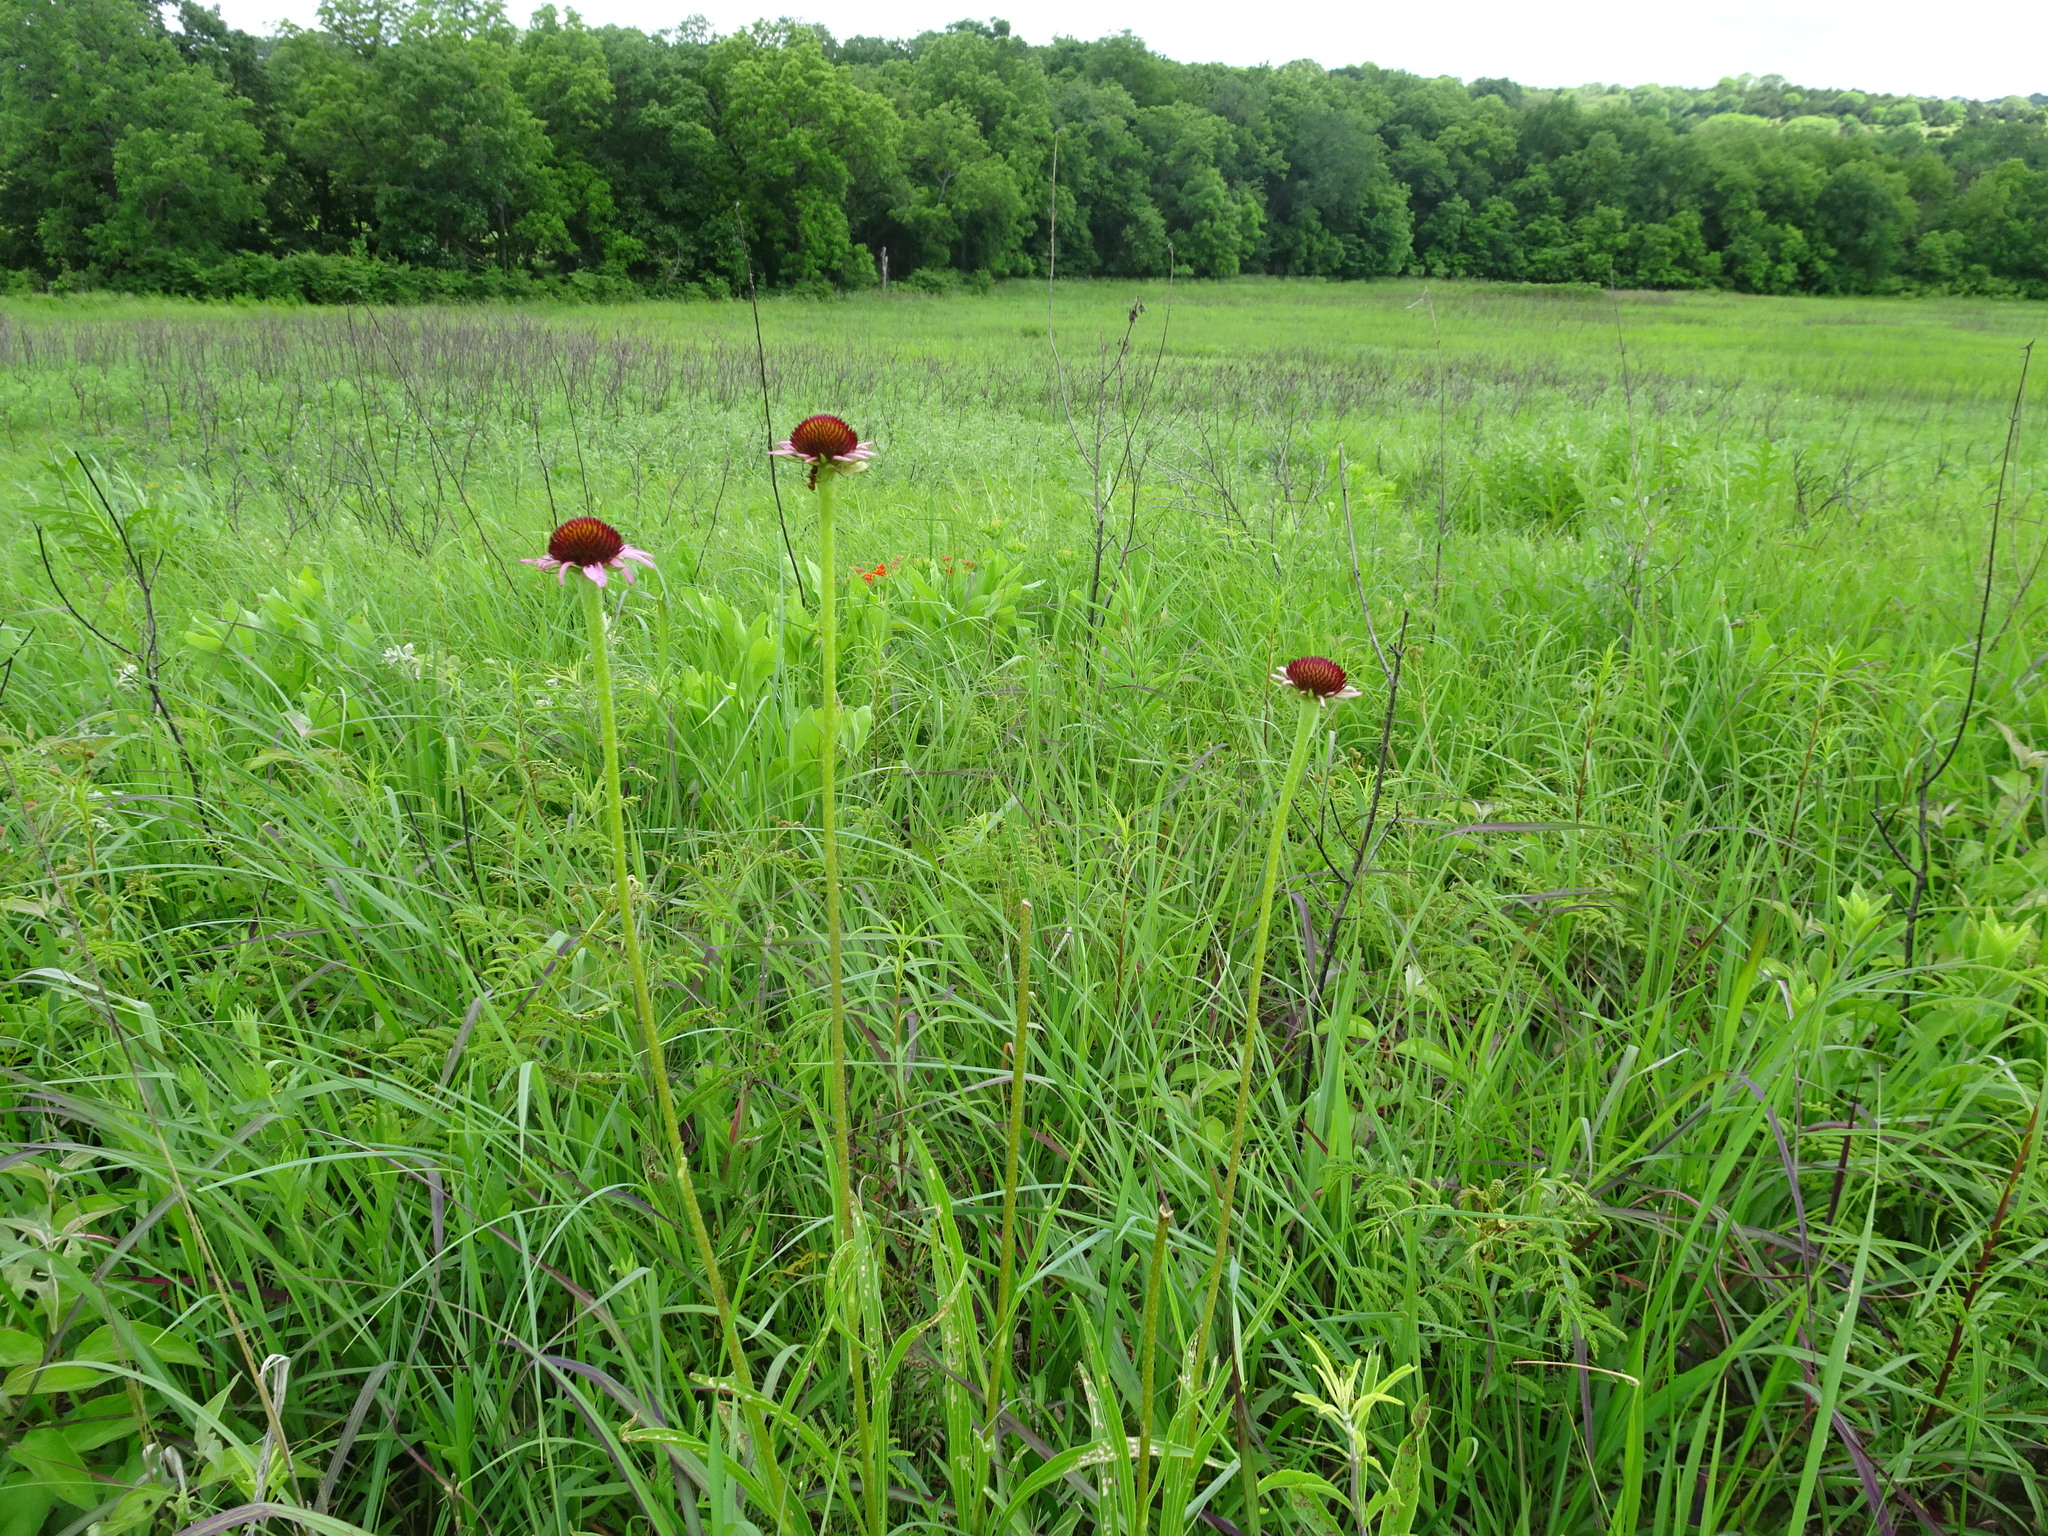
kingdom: Plantae
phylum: Tracheophyta
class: Magnoliopsida
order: Asterales
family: Asteraceae
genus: Echinacea
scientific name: Echinacea atrorubens
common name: Topeka purple-coneflower
